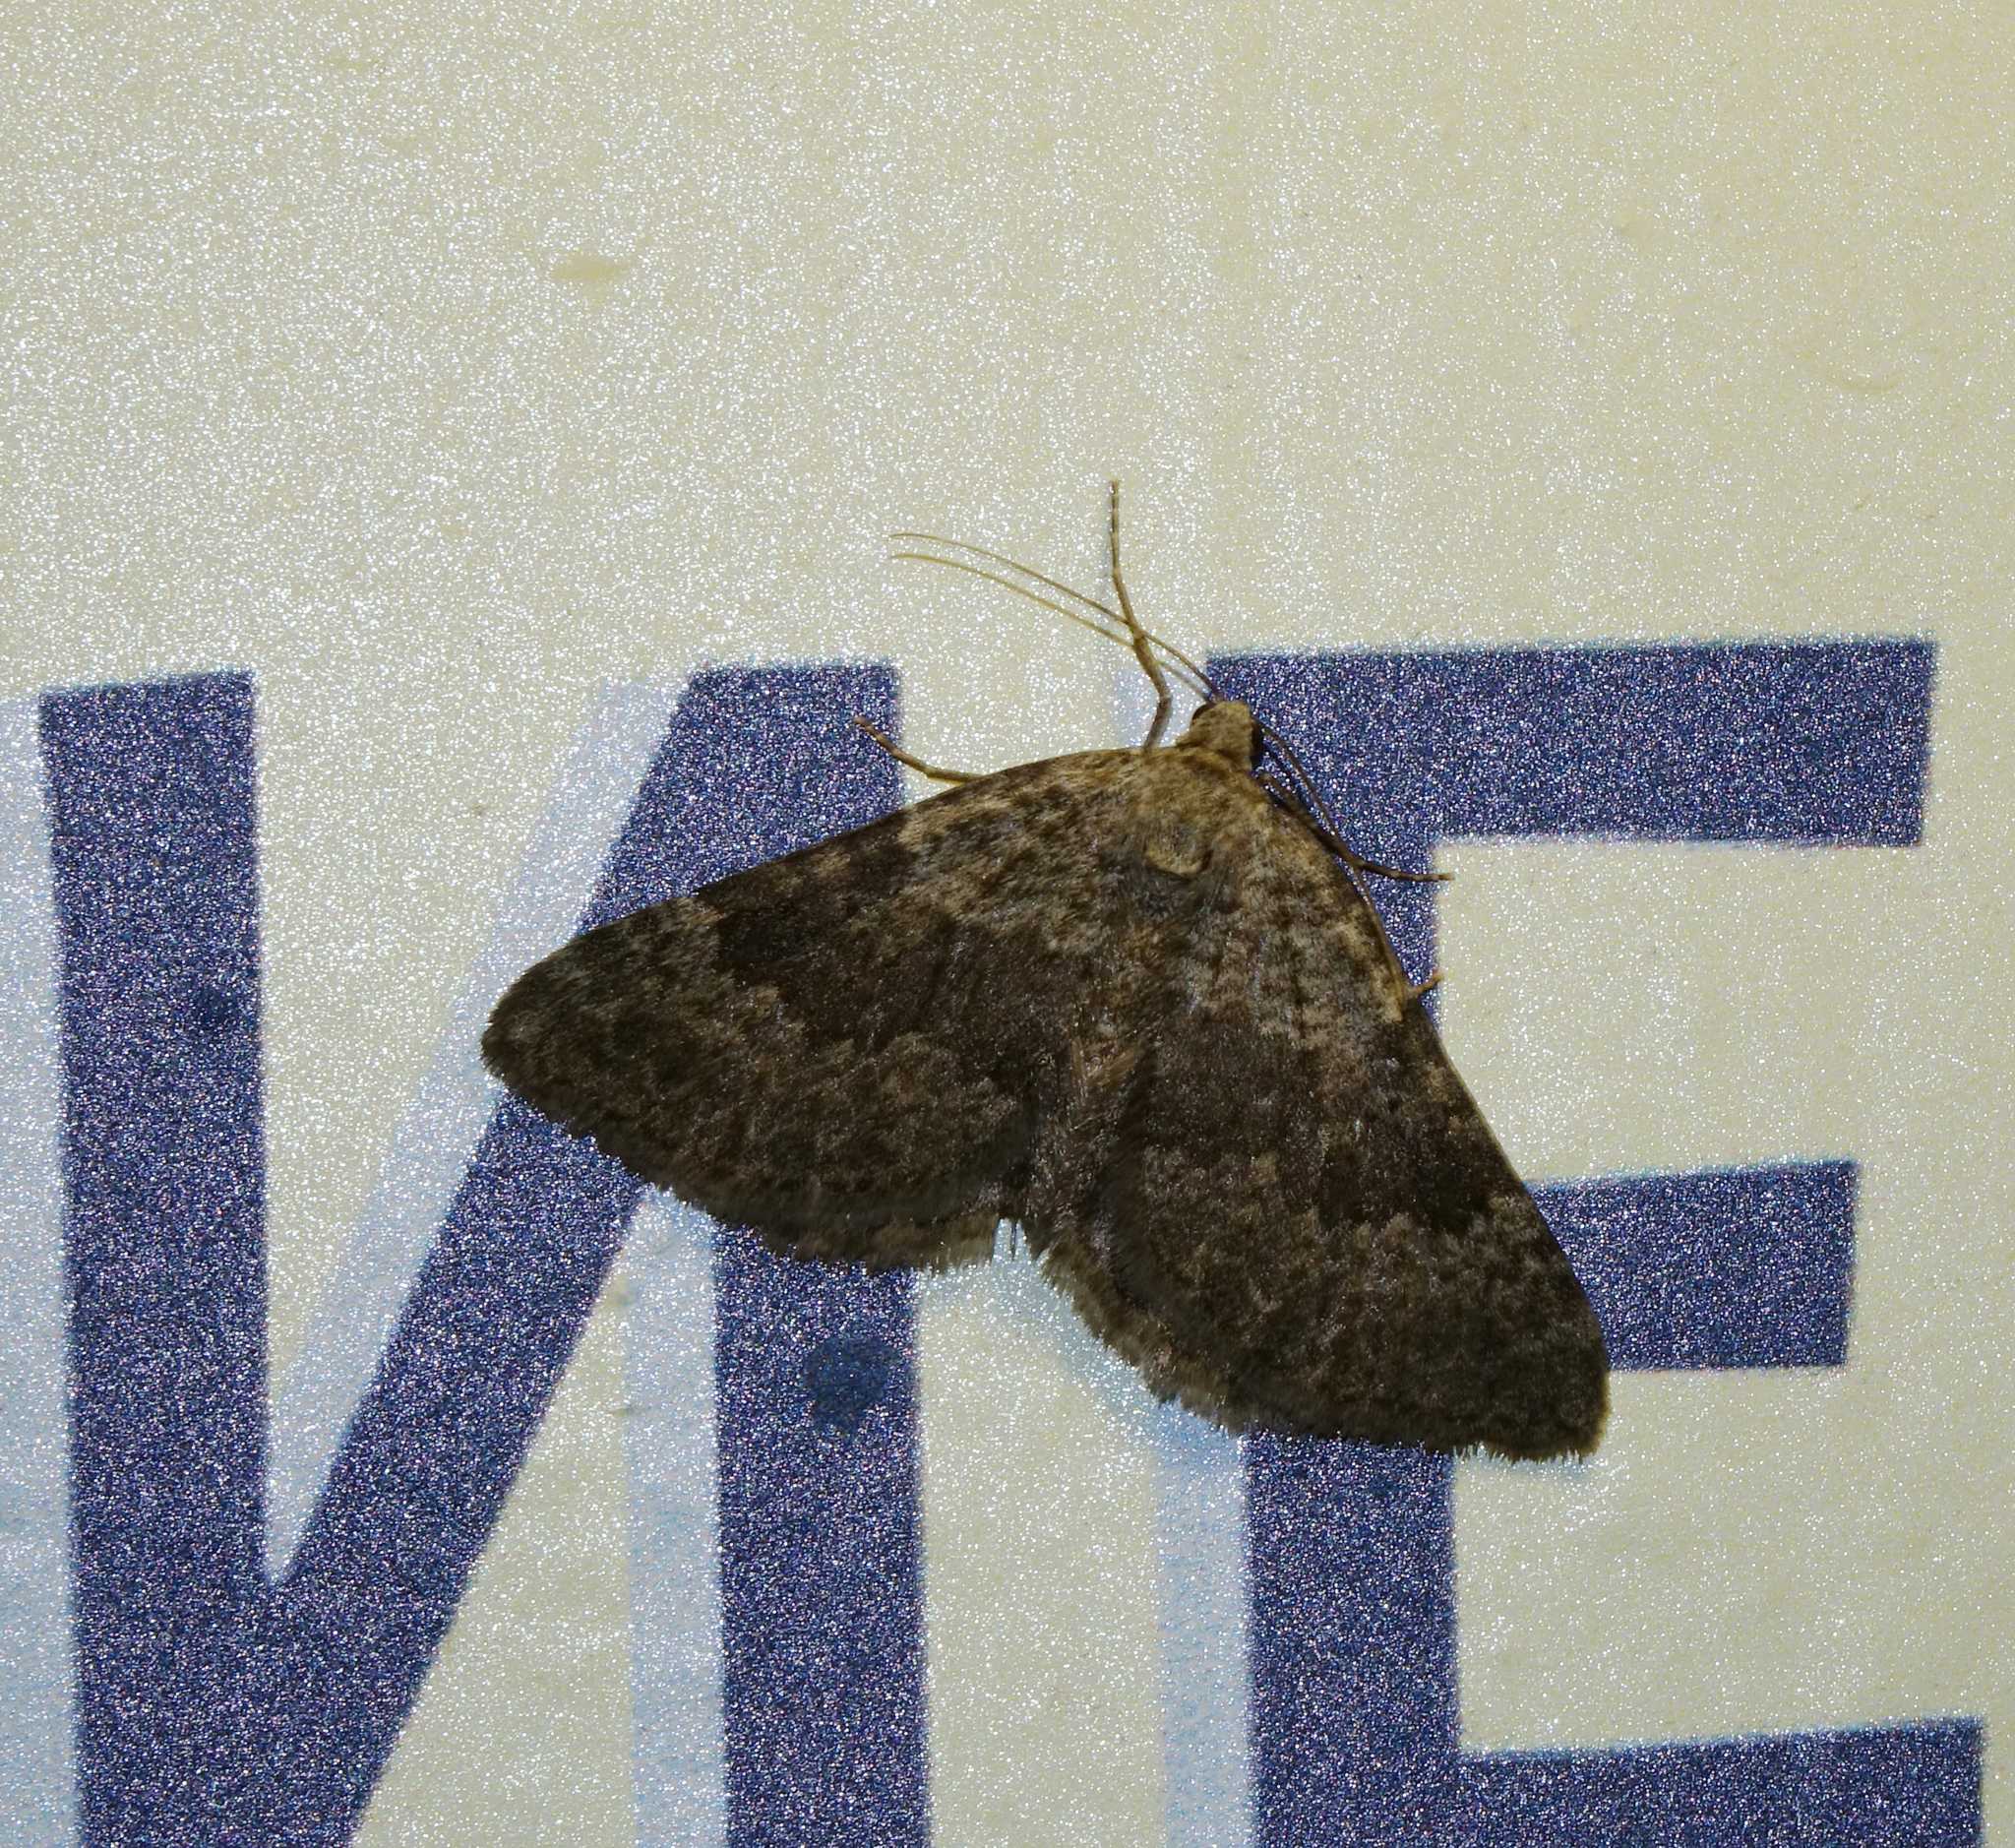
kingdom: Animalia
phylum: Arthropoda
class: Insecta
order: Lepidoptera
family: Geometridae
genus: Scotopteryx
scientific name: Scotopteryx
